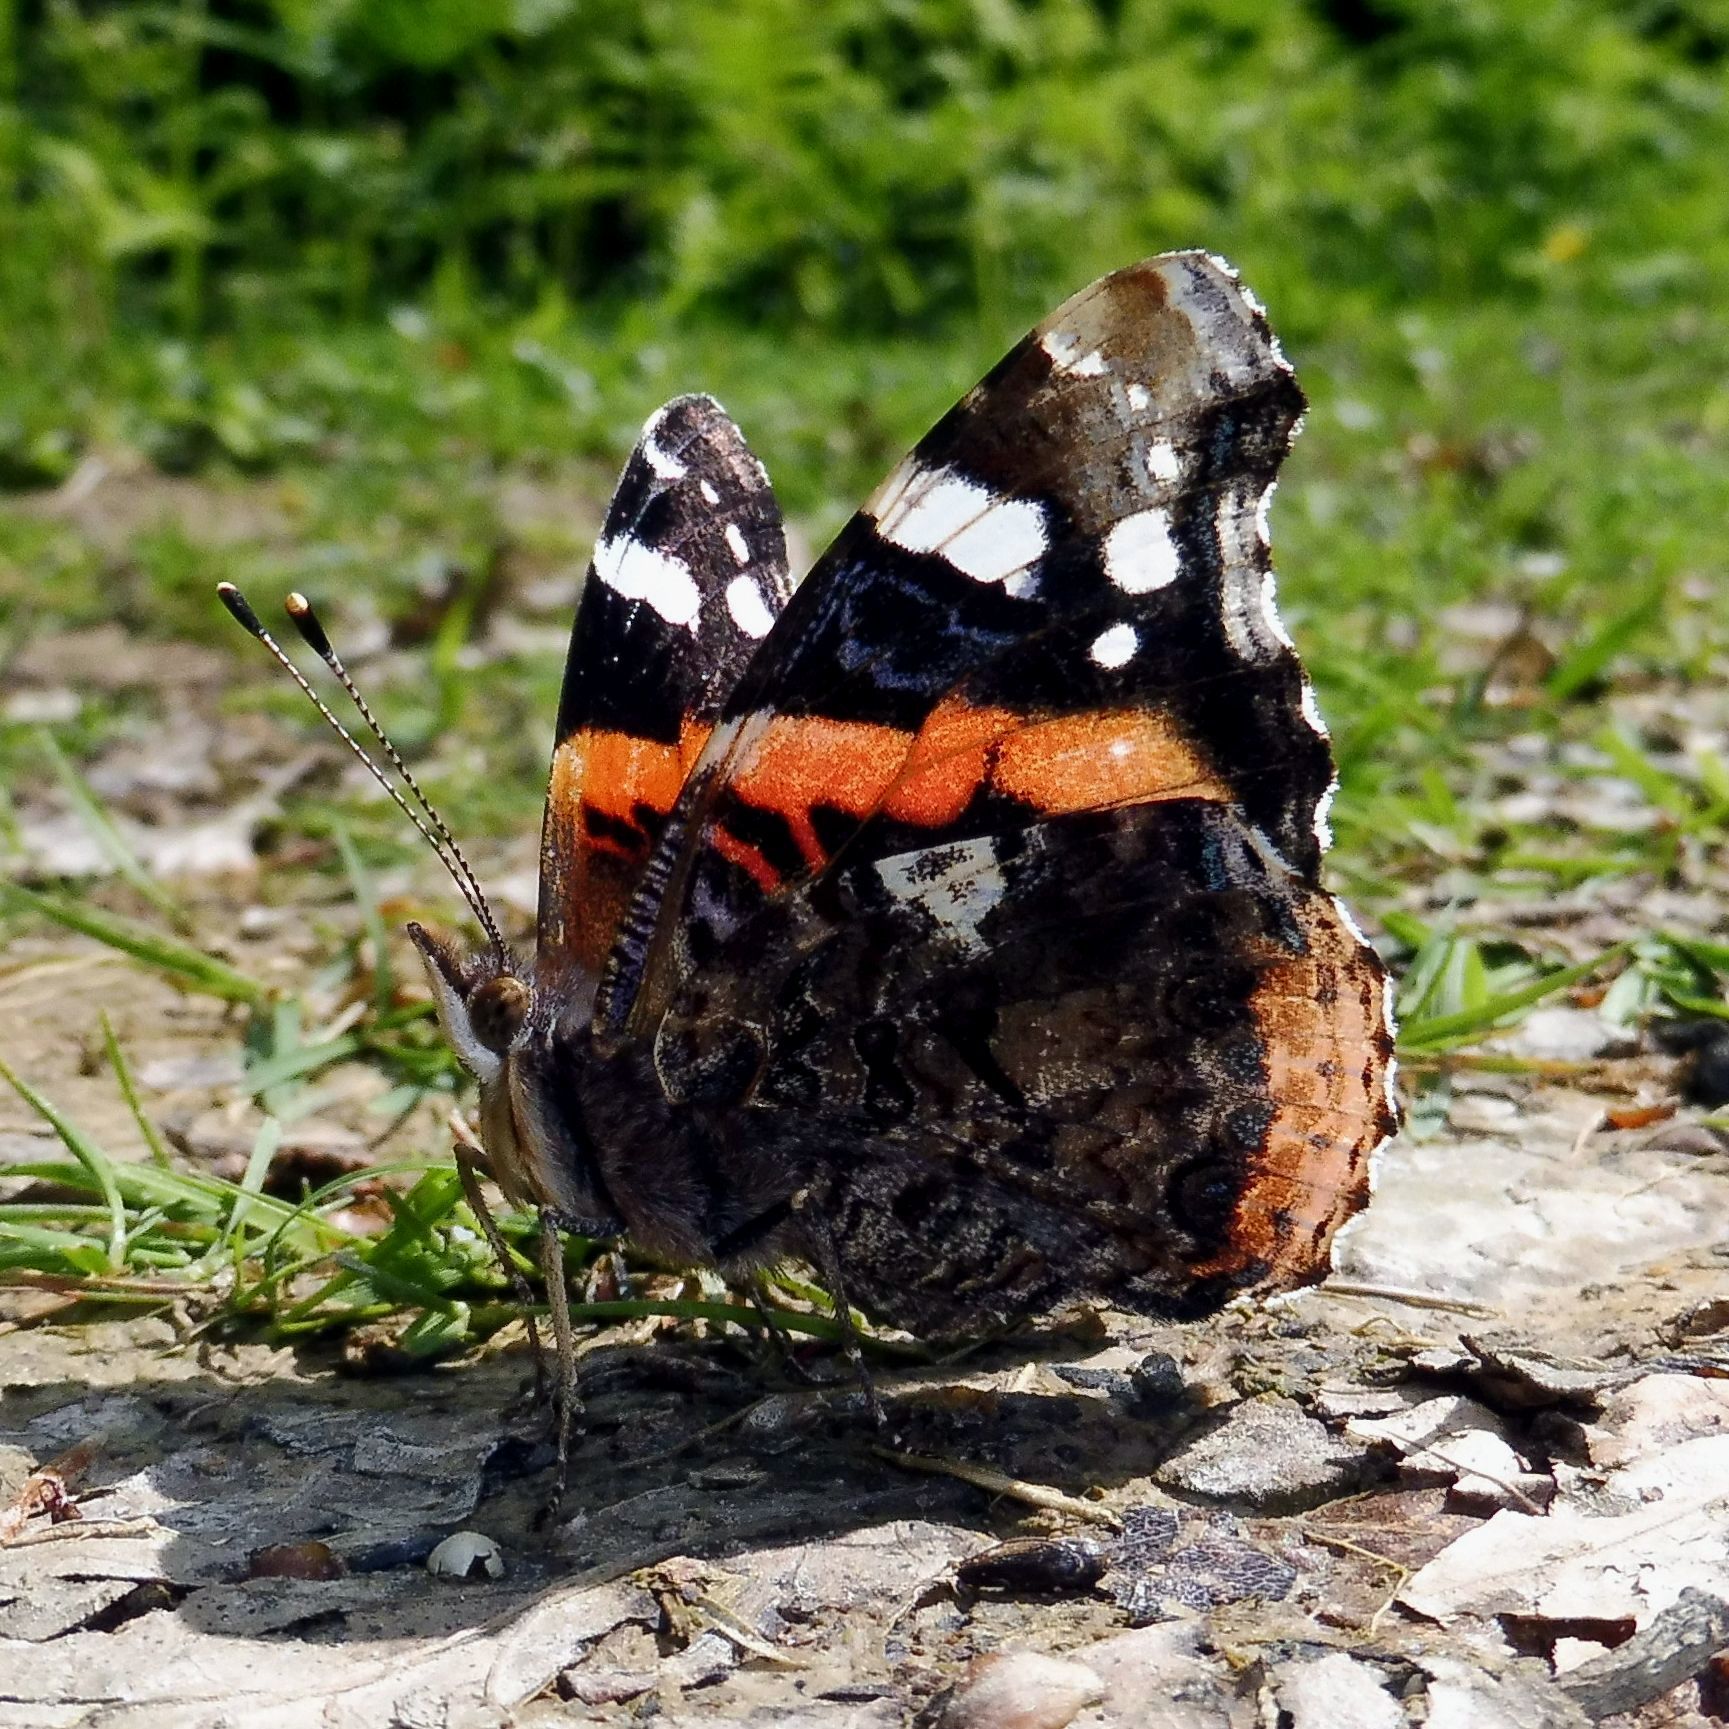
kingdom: Animalia
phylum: Arthropoda
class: Insecta
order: Lepidoptera
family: Nymphalidae
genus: Vanessa
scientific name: Vanessa atalanta
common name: Red admiral
